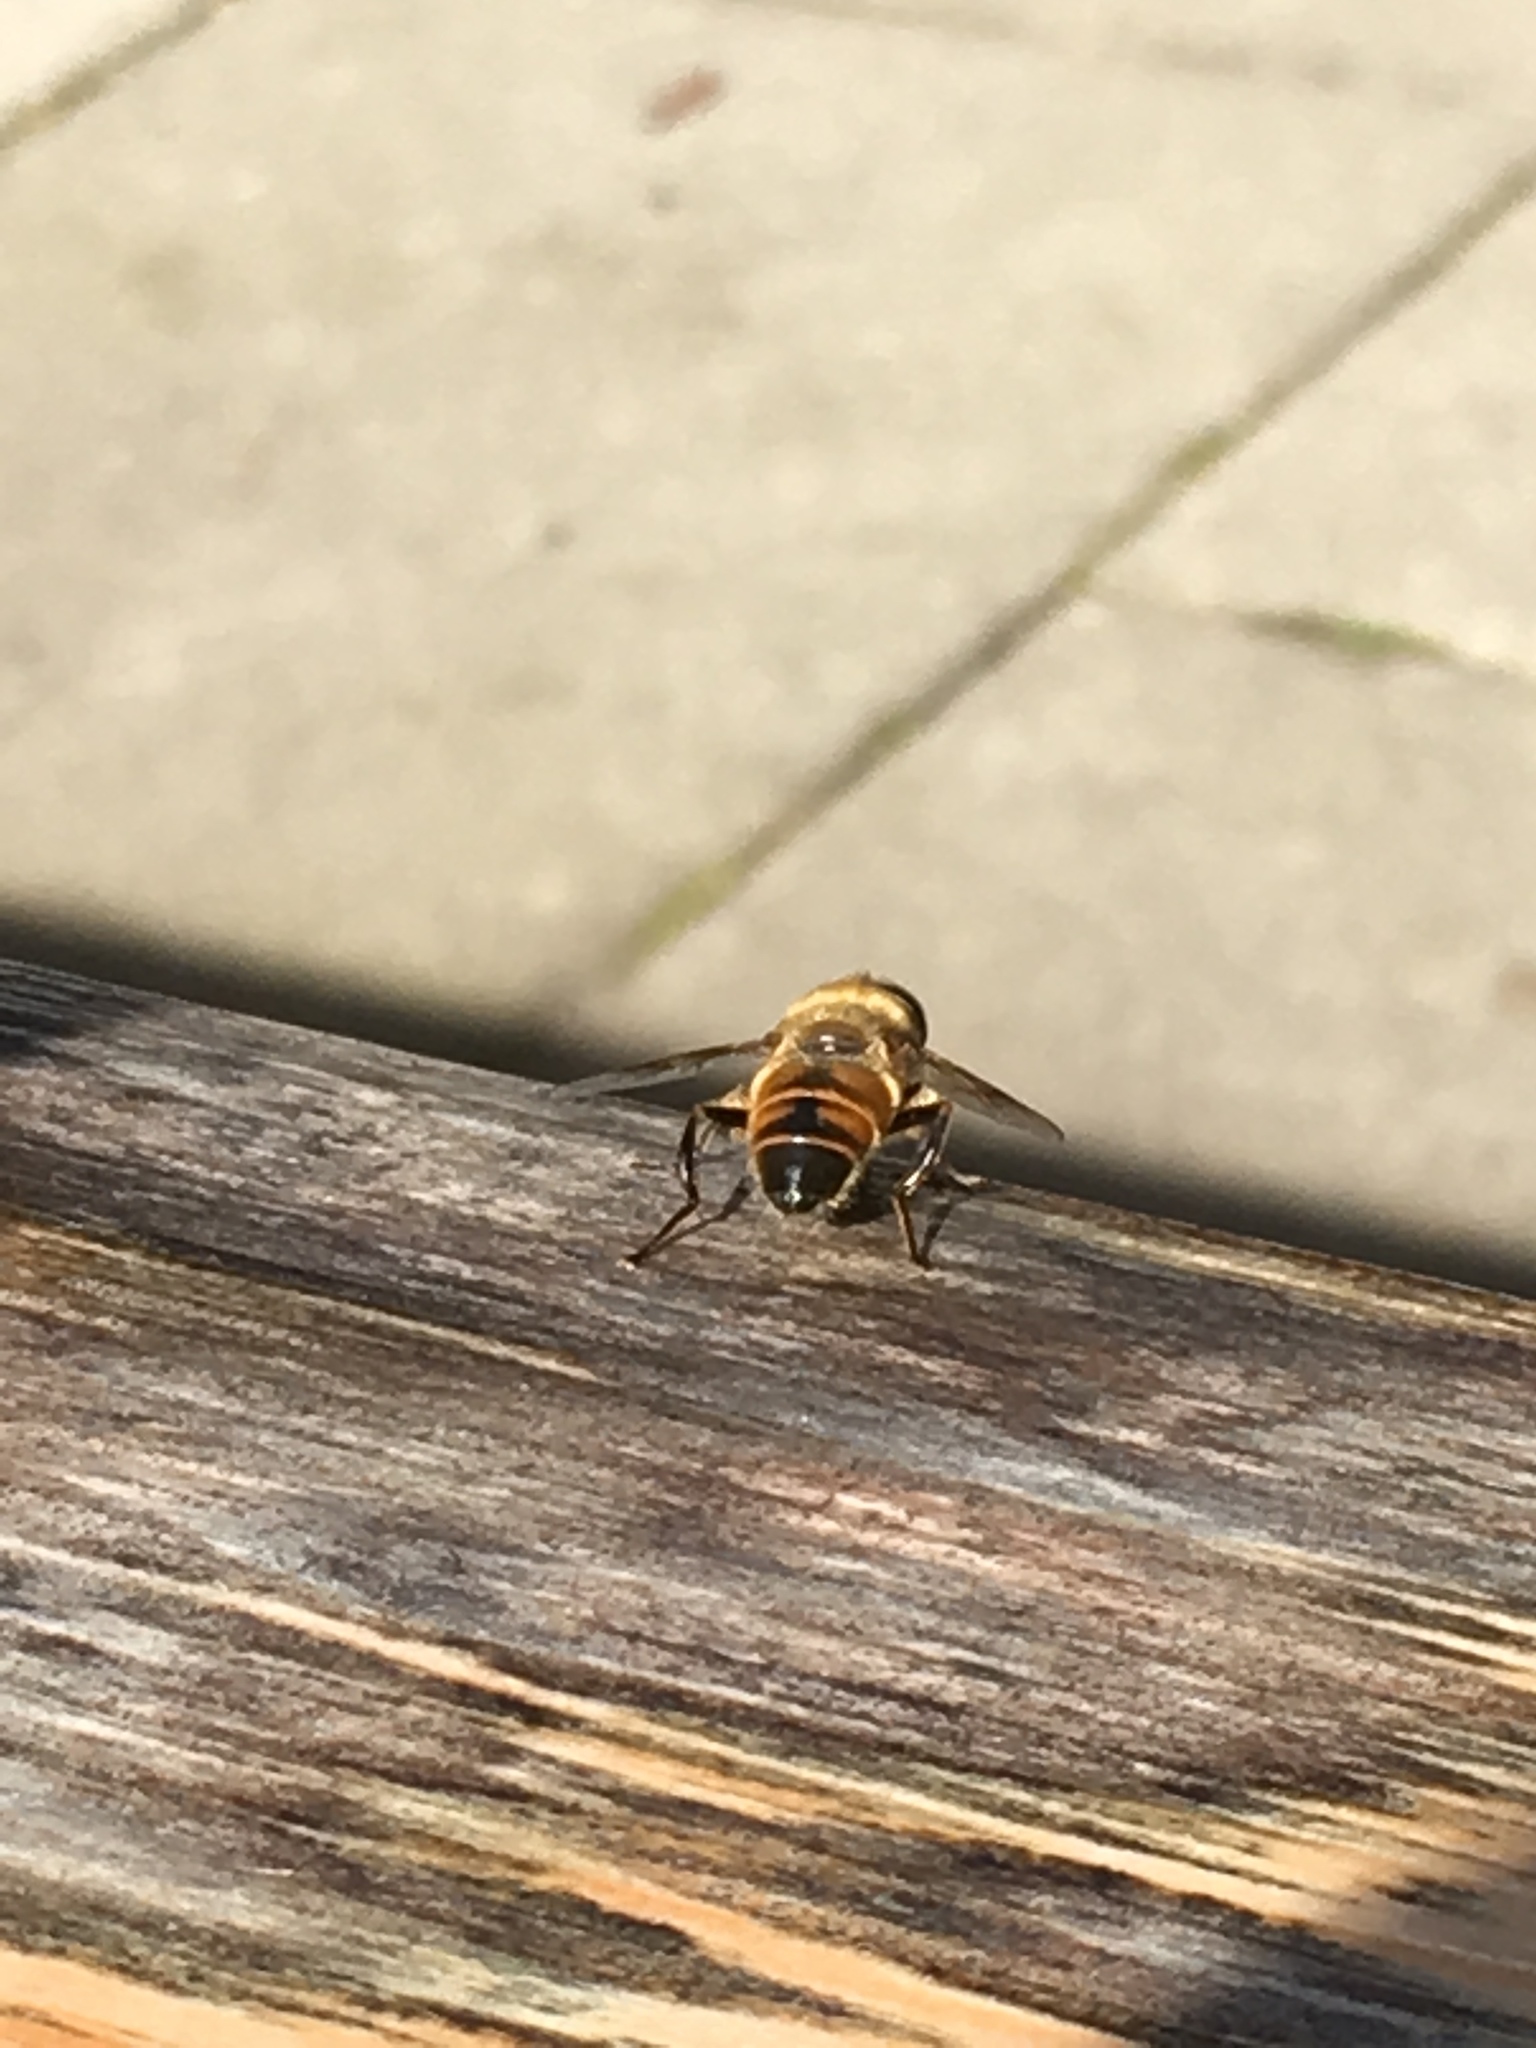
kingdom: Animalia
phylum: Arthropoda
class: Insecta
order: Diptera
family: Syrphidae
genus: Eristalis
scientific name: Eristalis tenax
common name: Drone fly
